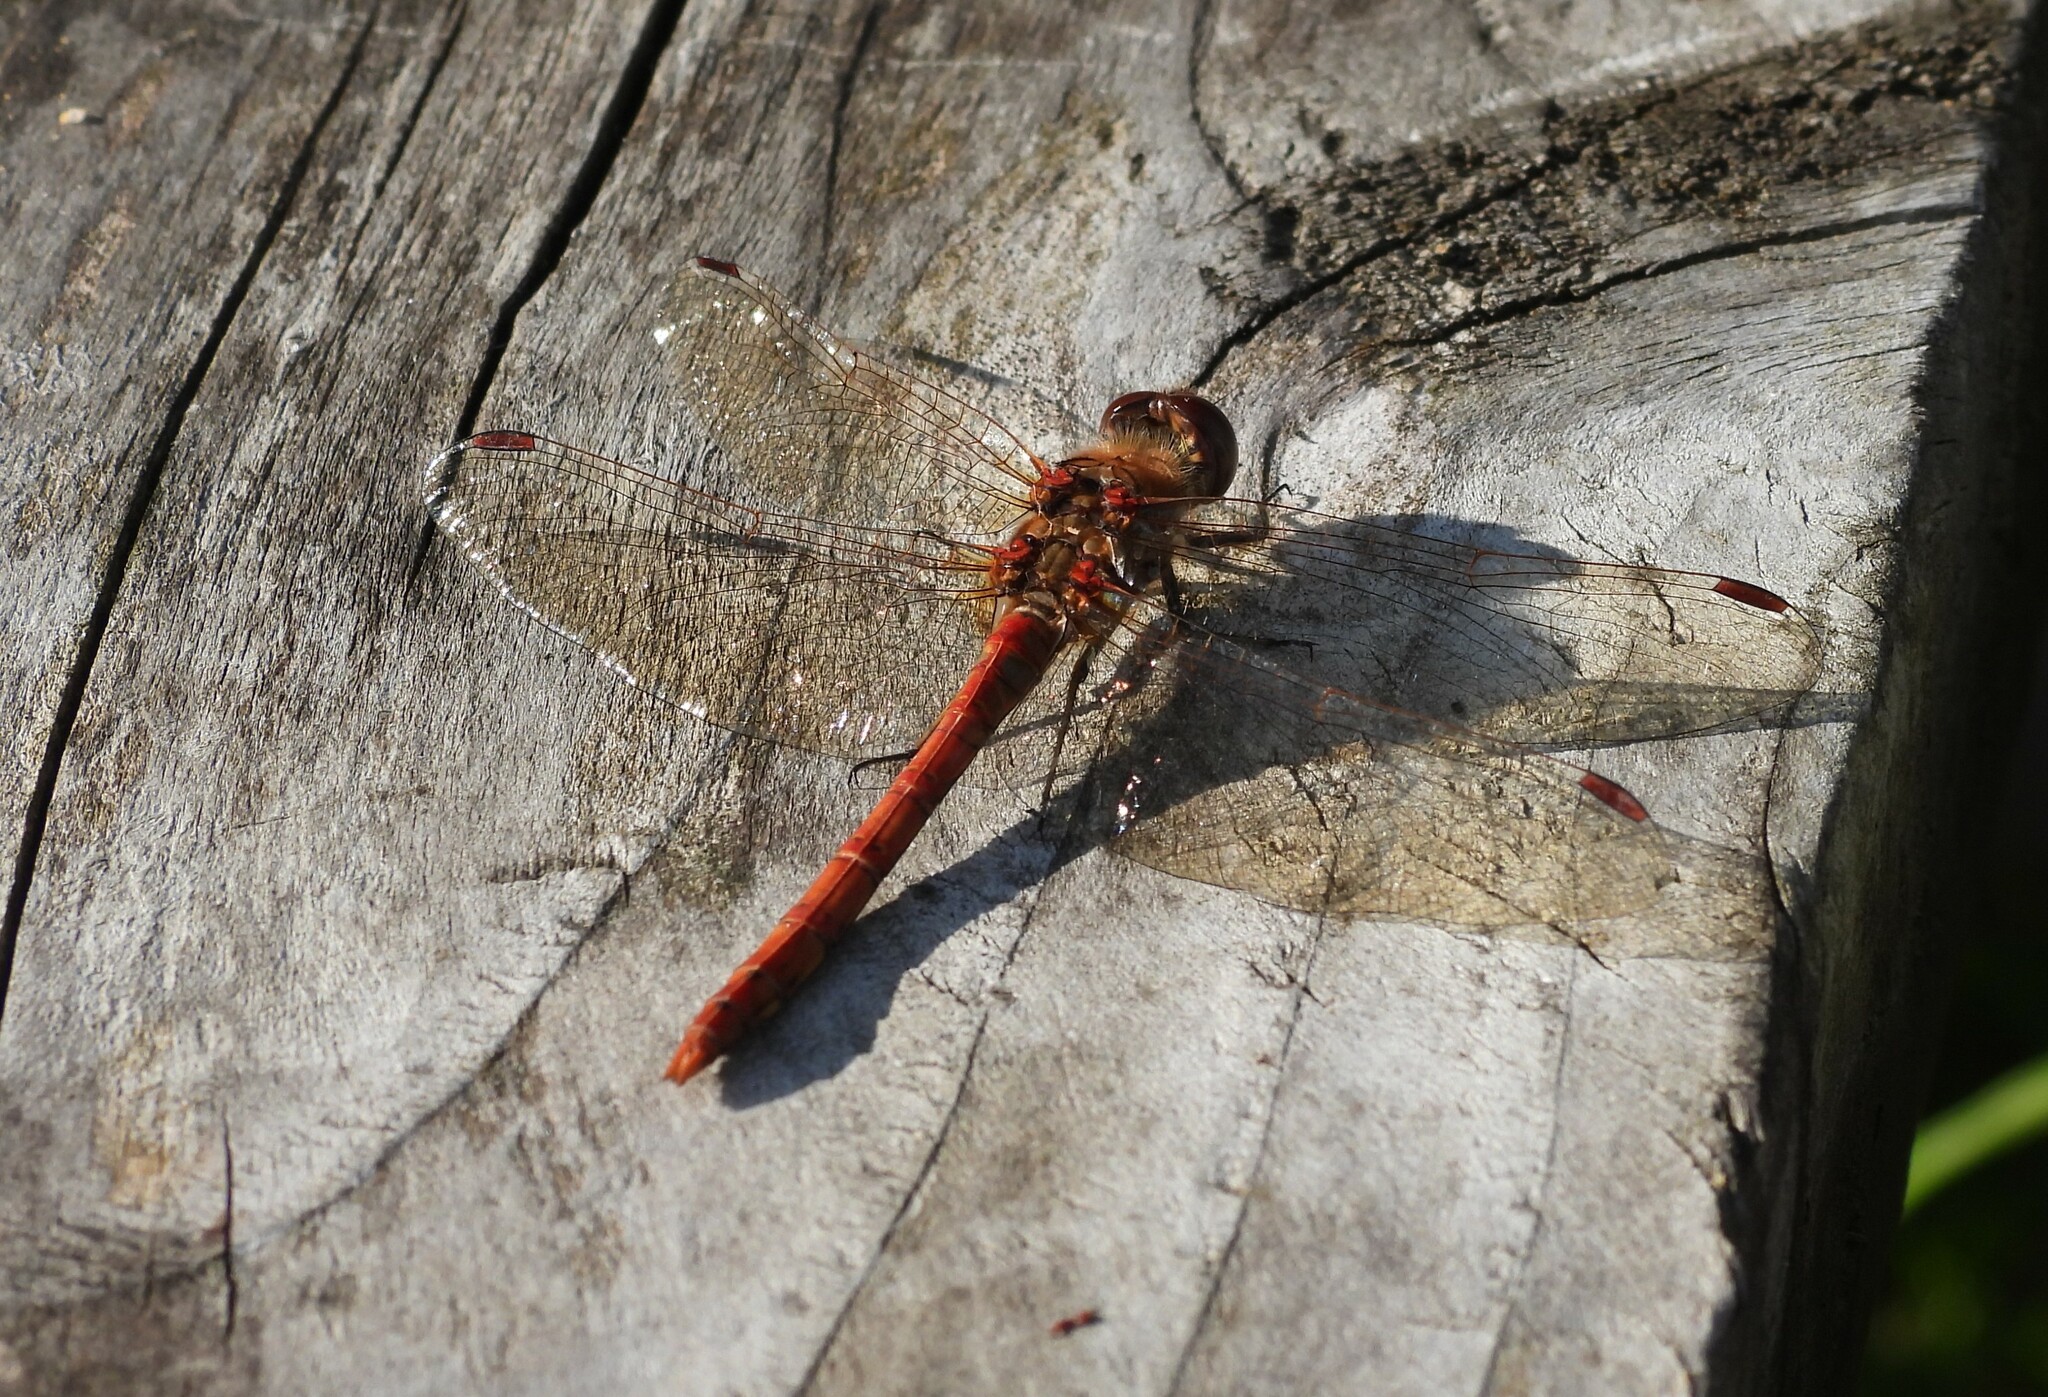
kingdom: Animalia
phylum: Arthropoda
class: Insecta
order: Odonata
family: Libellulidae
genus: Sympetrum
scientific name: Sympetrum striolatum
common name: Common darter
